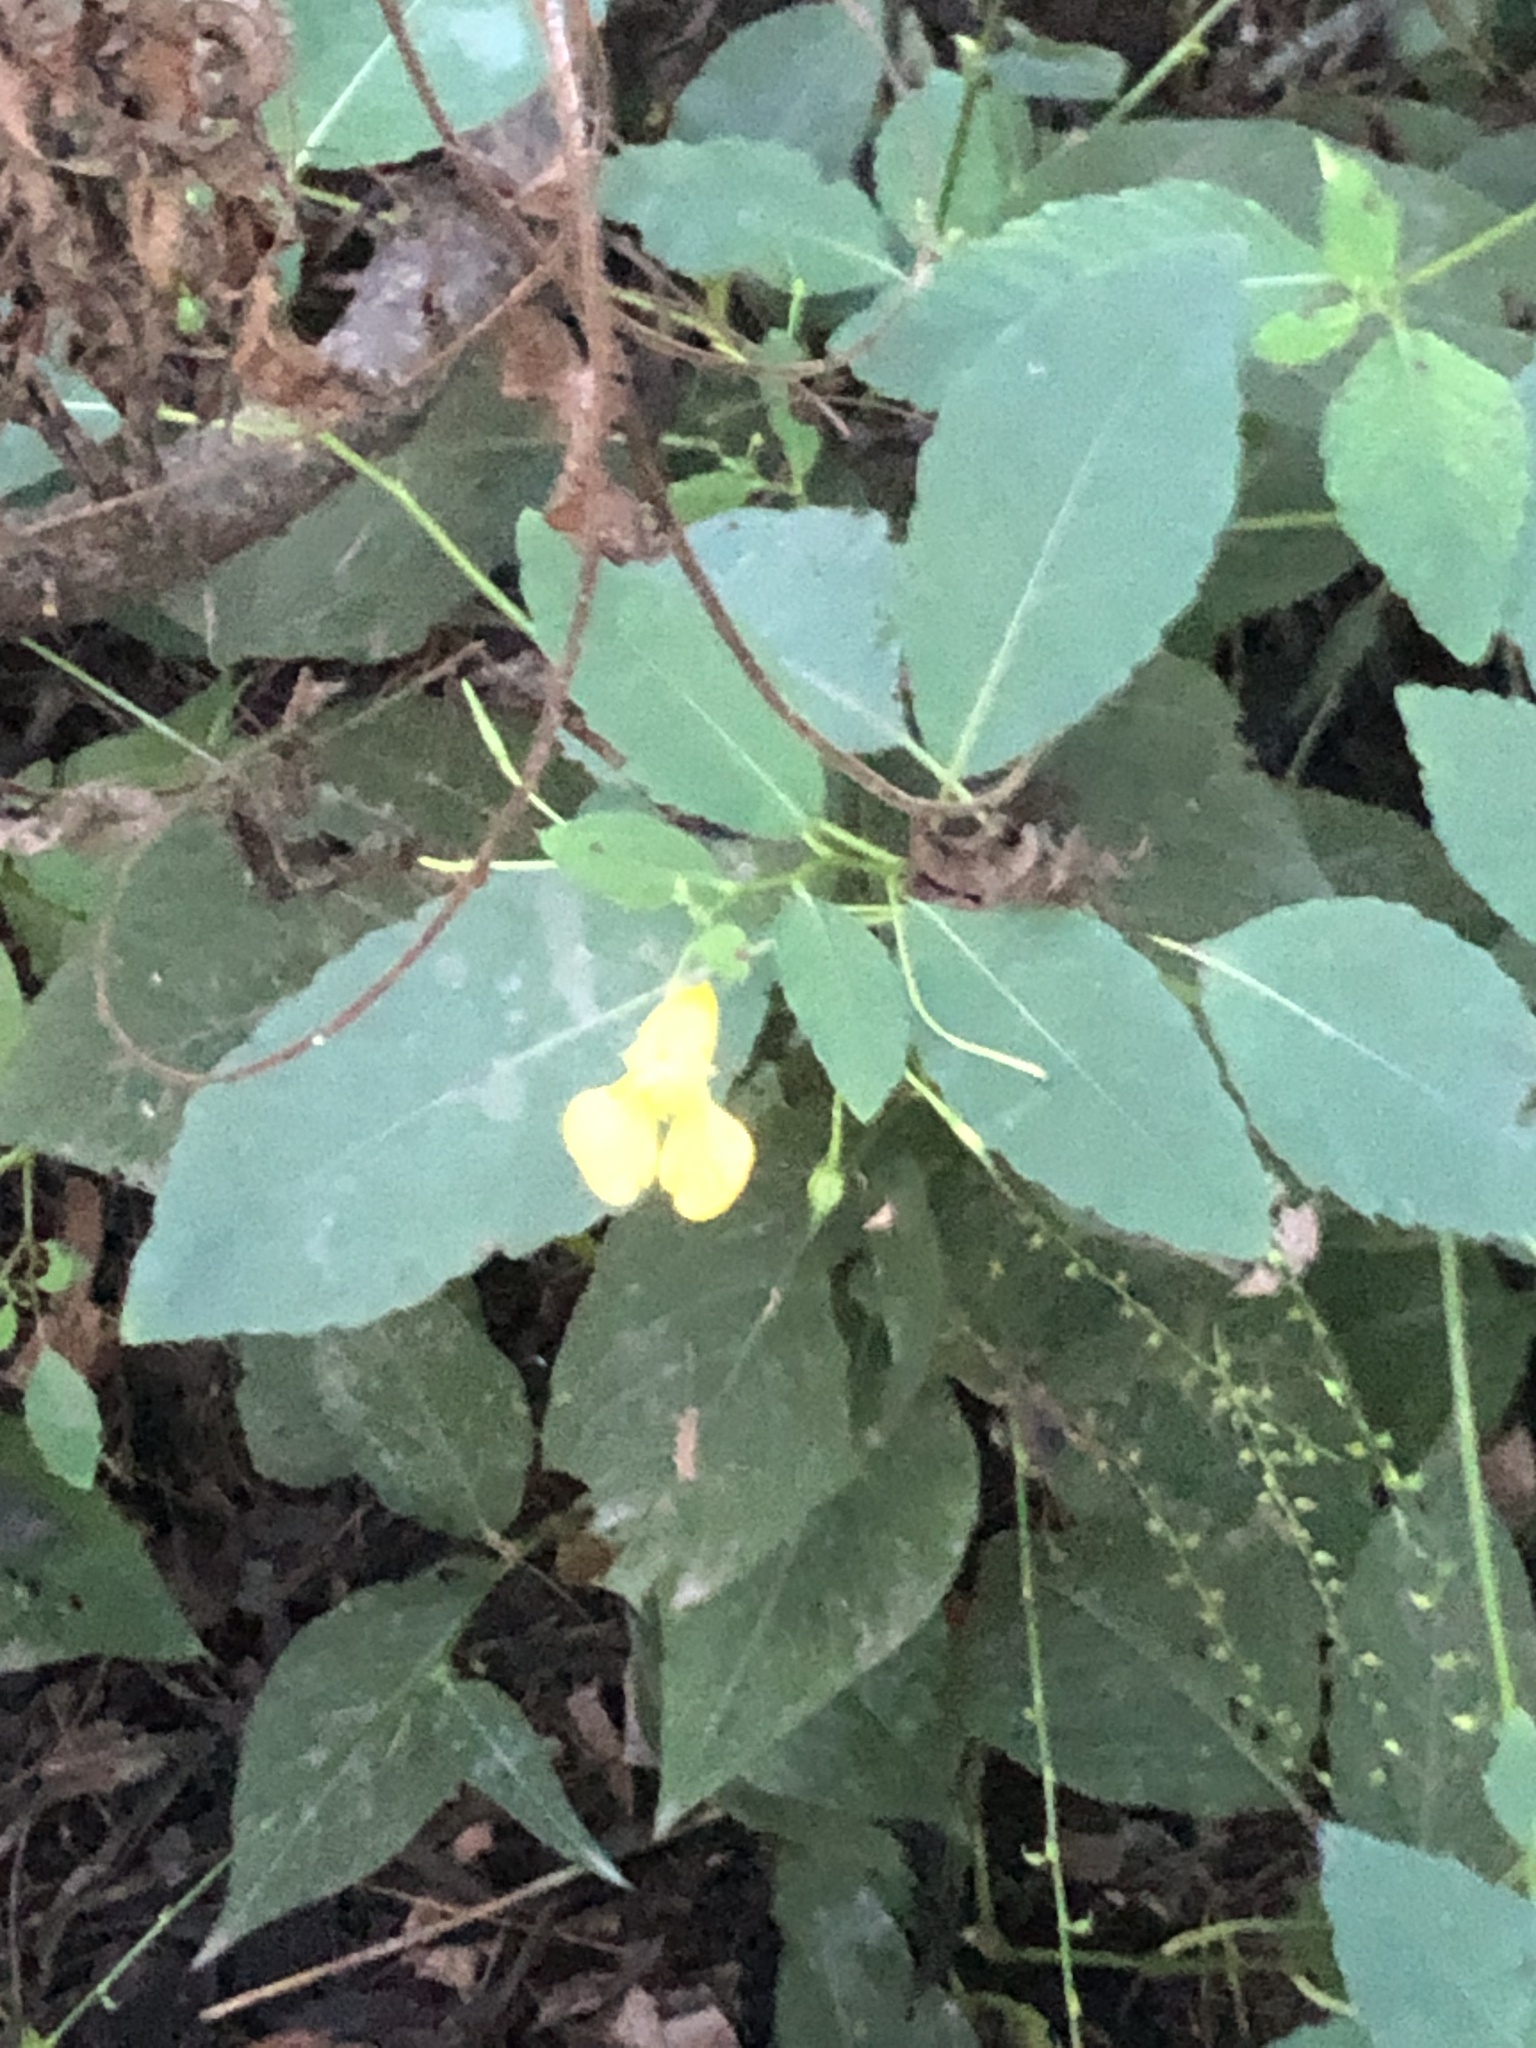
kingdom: Plantae
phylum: Tracheophyta
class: Magnoliopsida
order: Ericales
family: Balsaminaceae
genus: Impatiens
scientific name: Impatiens pallida
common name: Pale snapweed
